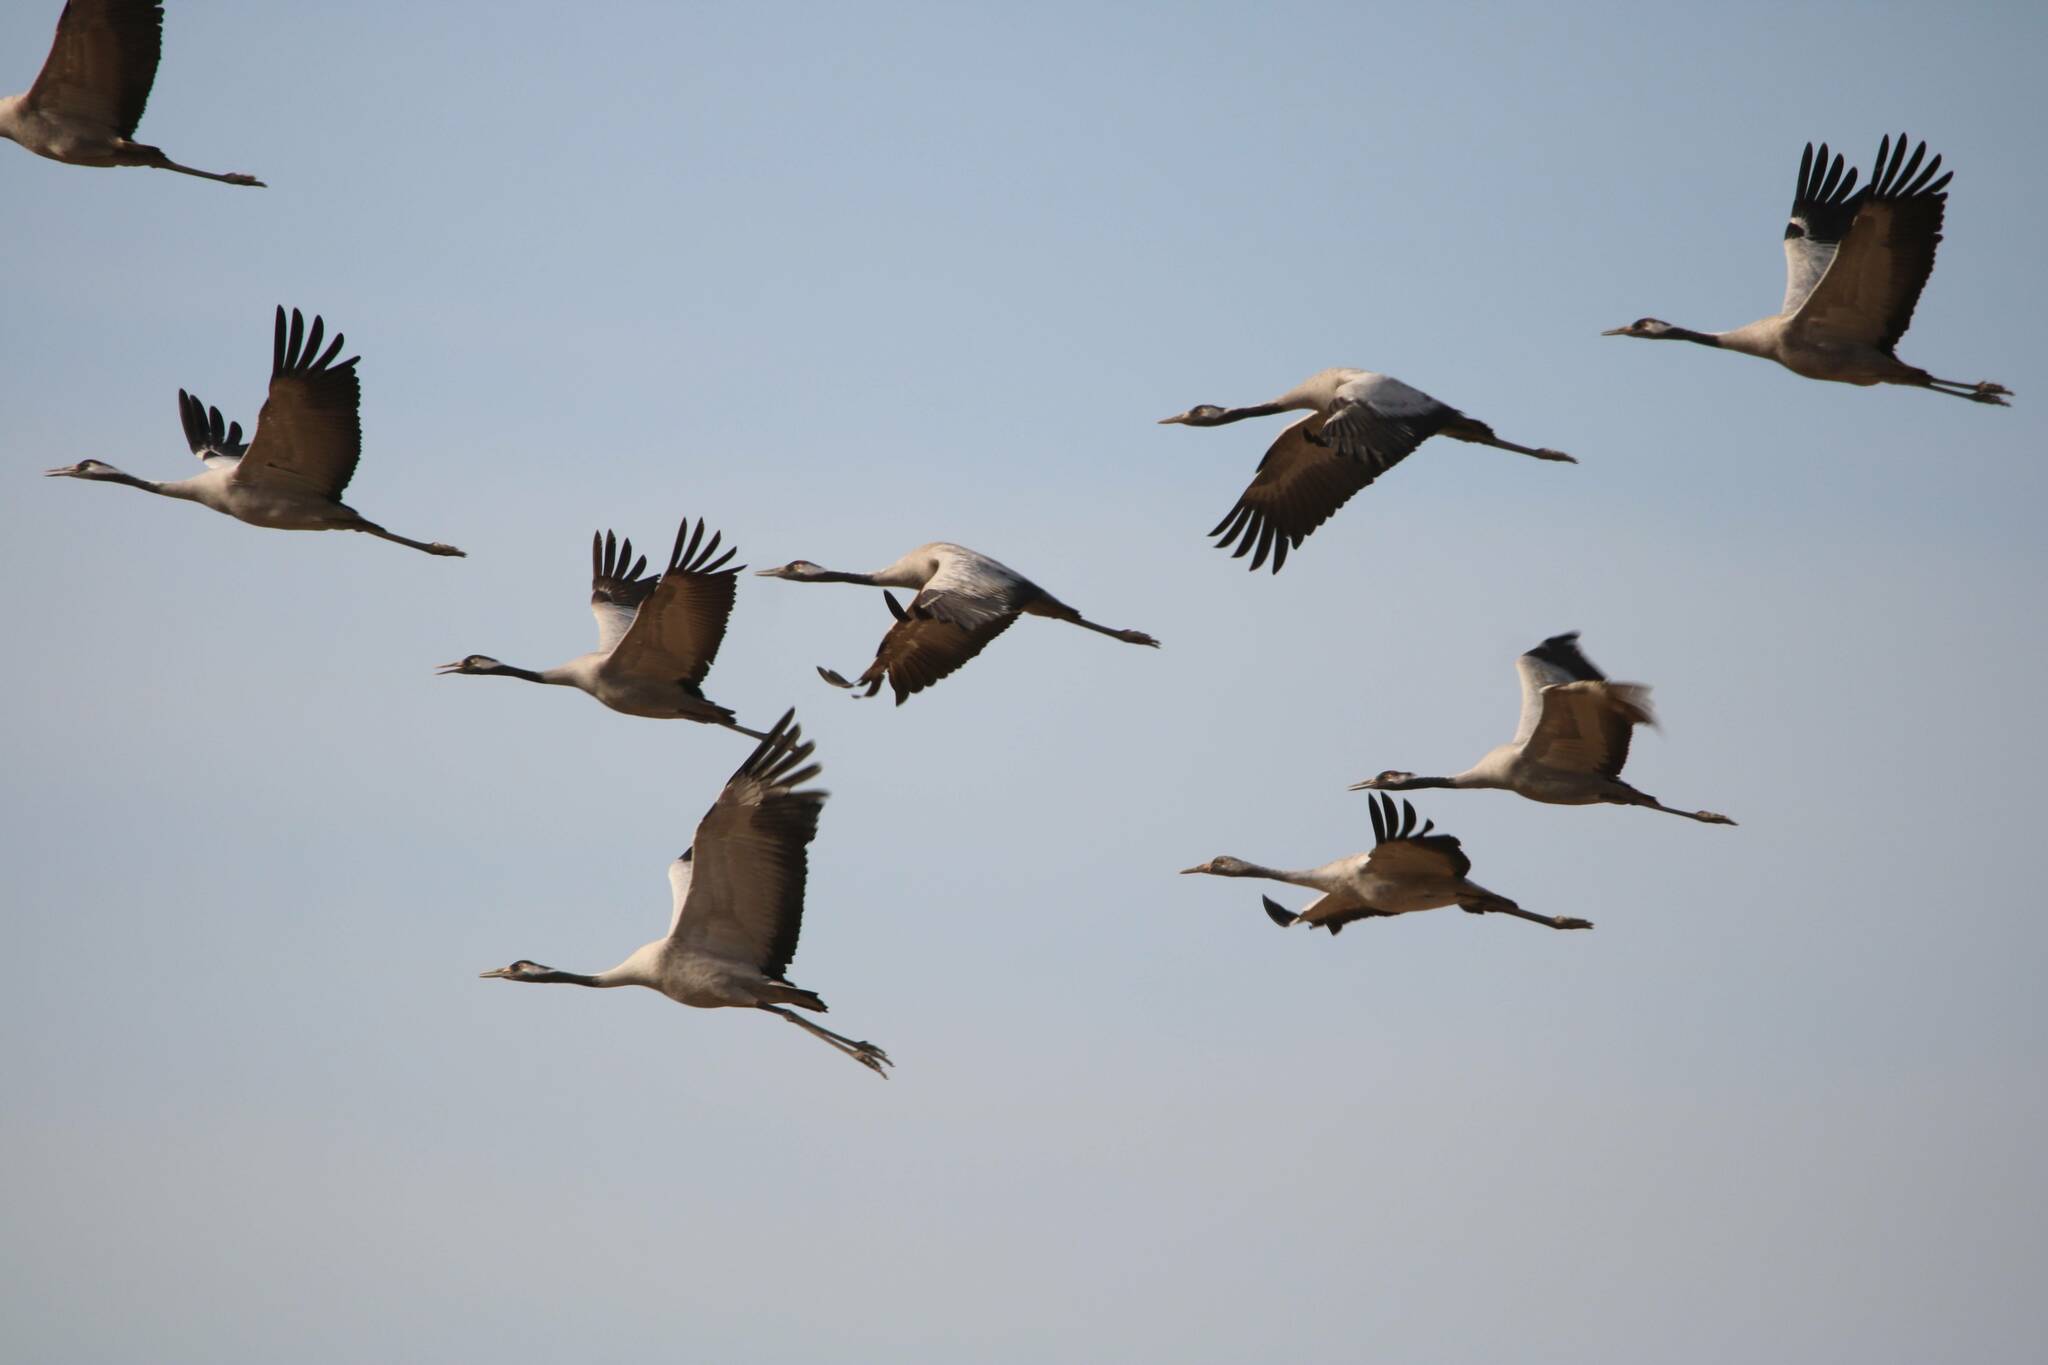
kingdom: Animalia
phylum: Chordata
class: Aves
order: Gruiformes
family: Gruidae
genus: Grus
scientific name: Grus grus
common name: Common crane
